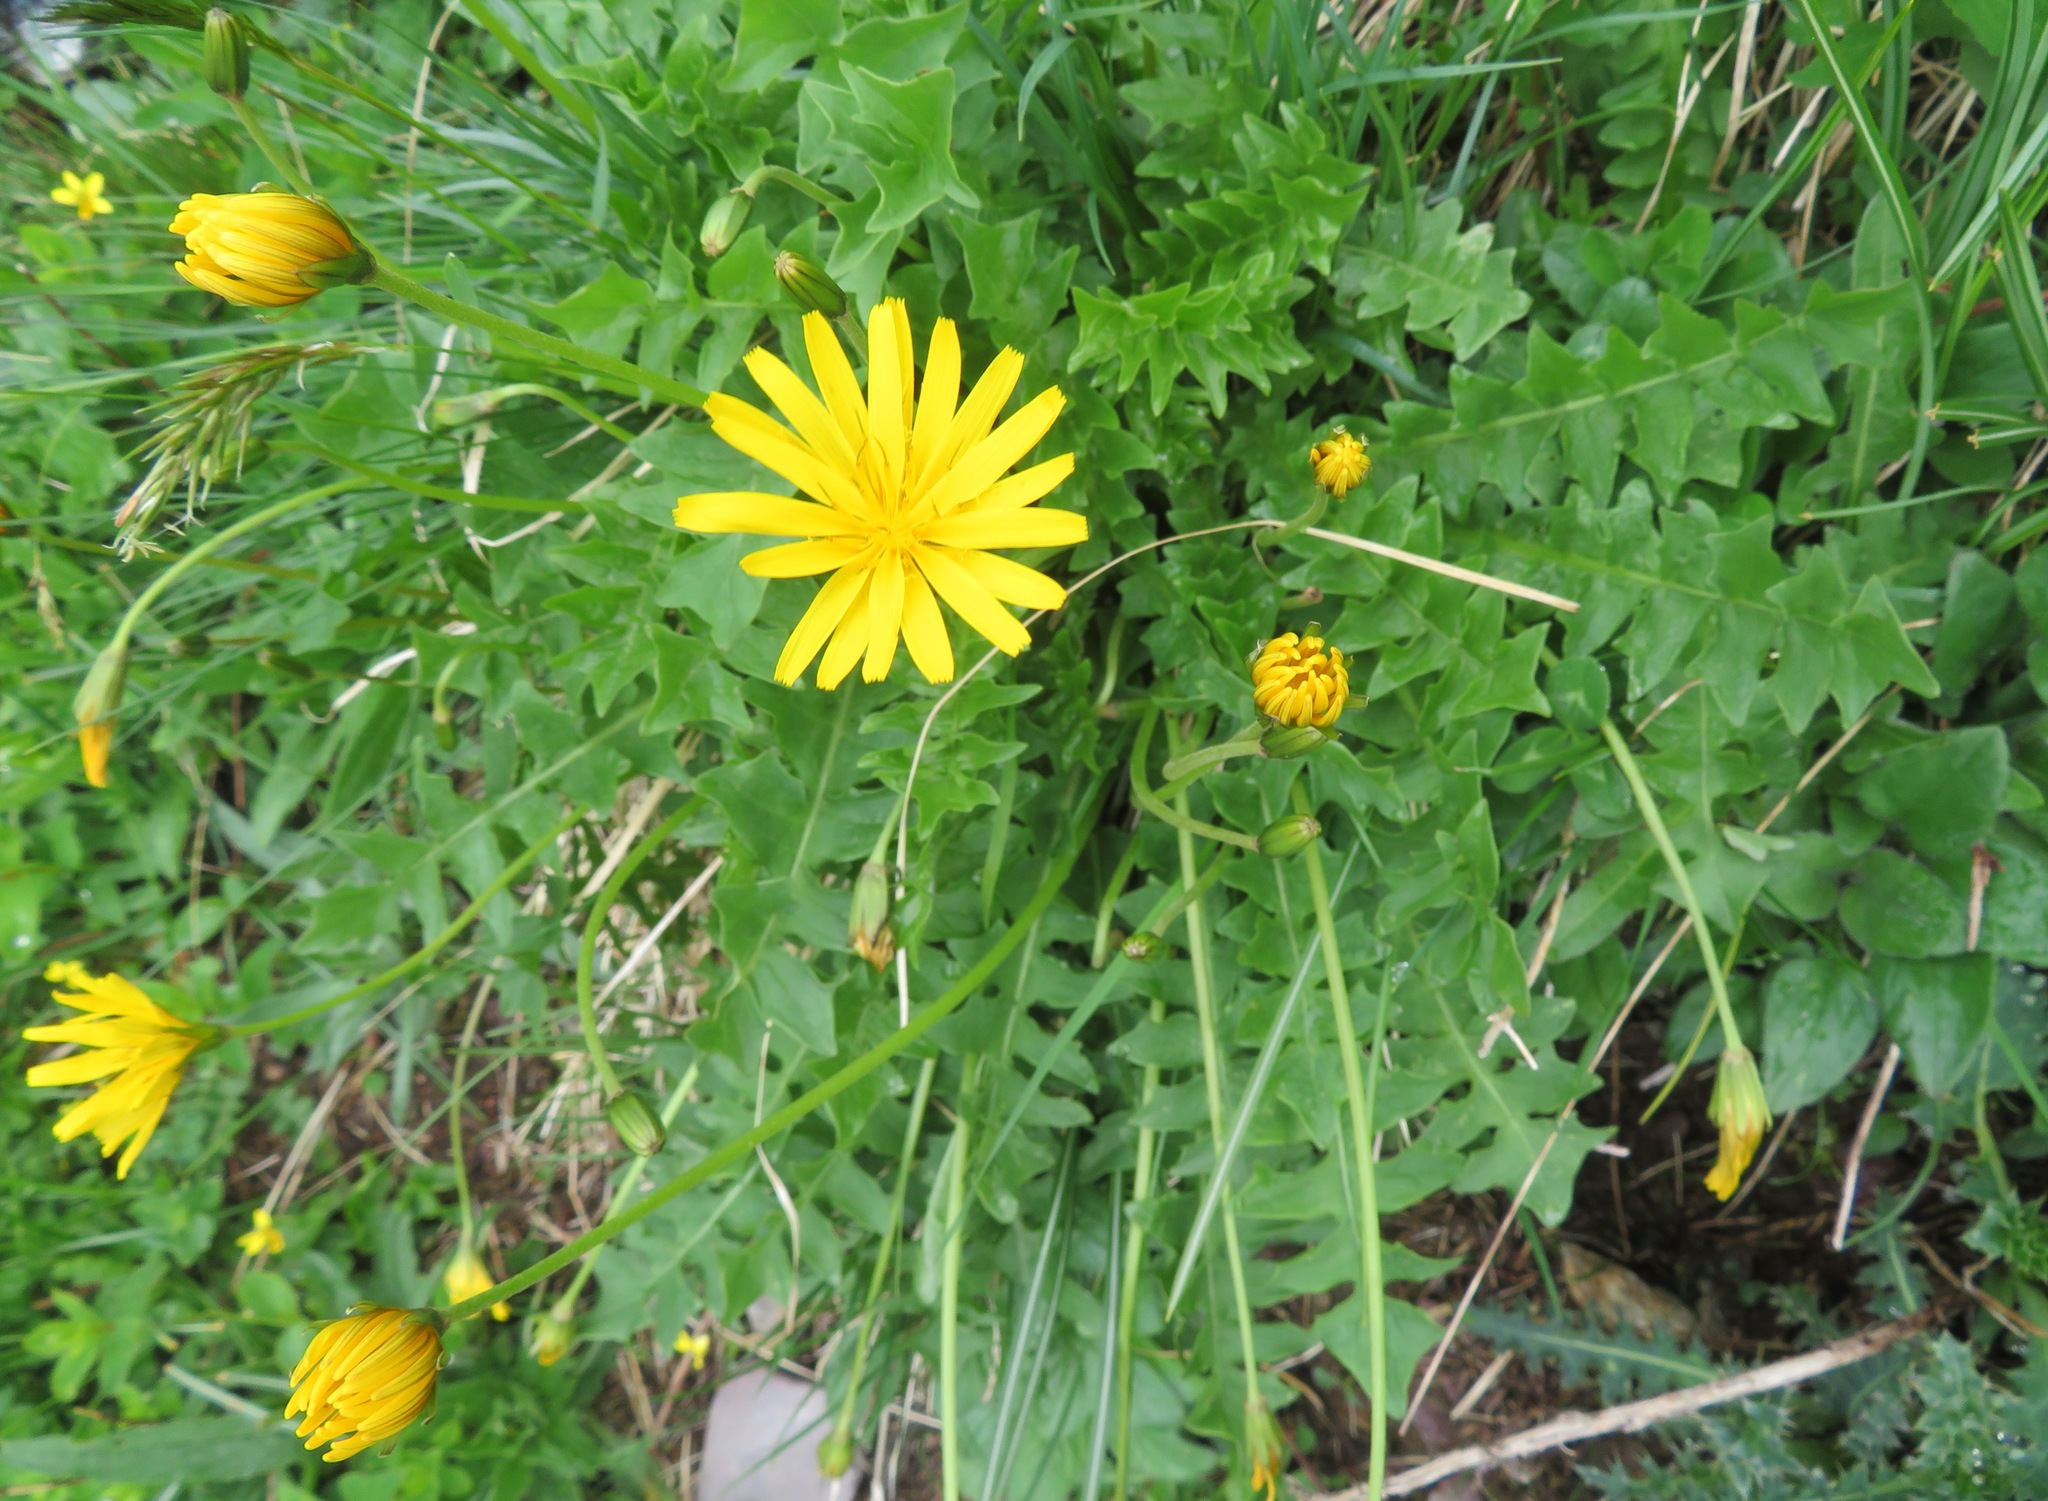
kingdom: Plantae
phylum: Tracheophyta
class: Magnoliopsida
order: Asterales
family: Asteraceae
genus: Aposeris
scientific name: Aposeris foetida
